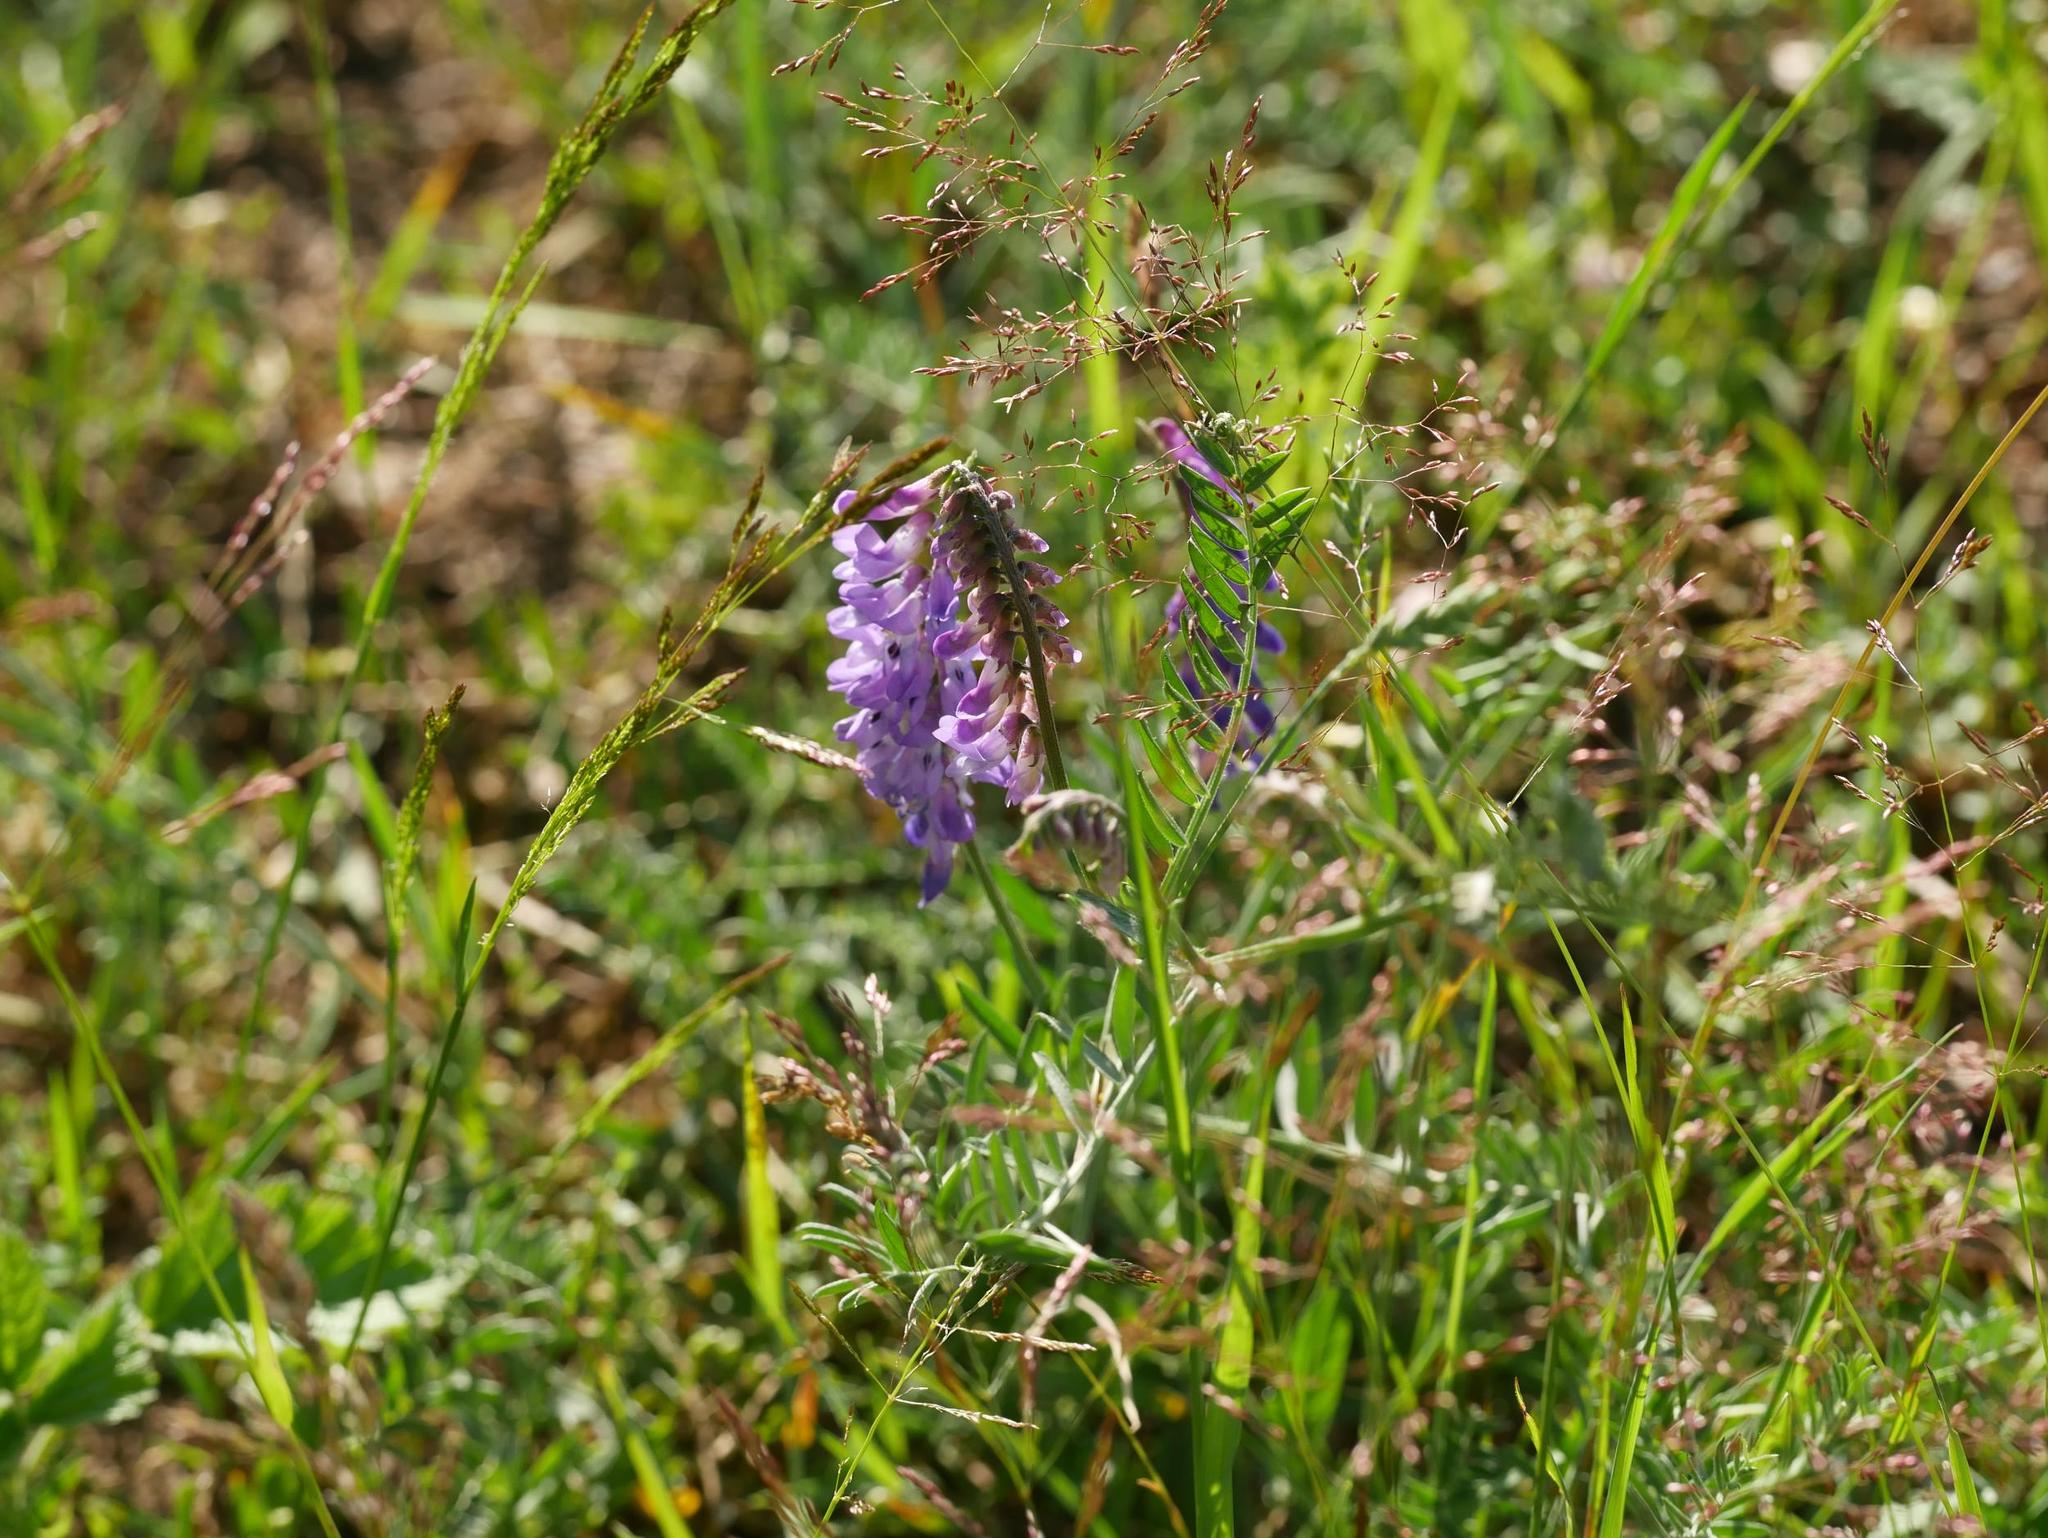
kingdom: Plantae
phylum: Tracheophyta
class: Magnoliopsida
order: Fabales
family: Fabaceae
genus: Vicia
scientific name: Vicia cracca
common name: Bird vetch
